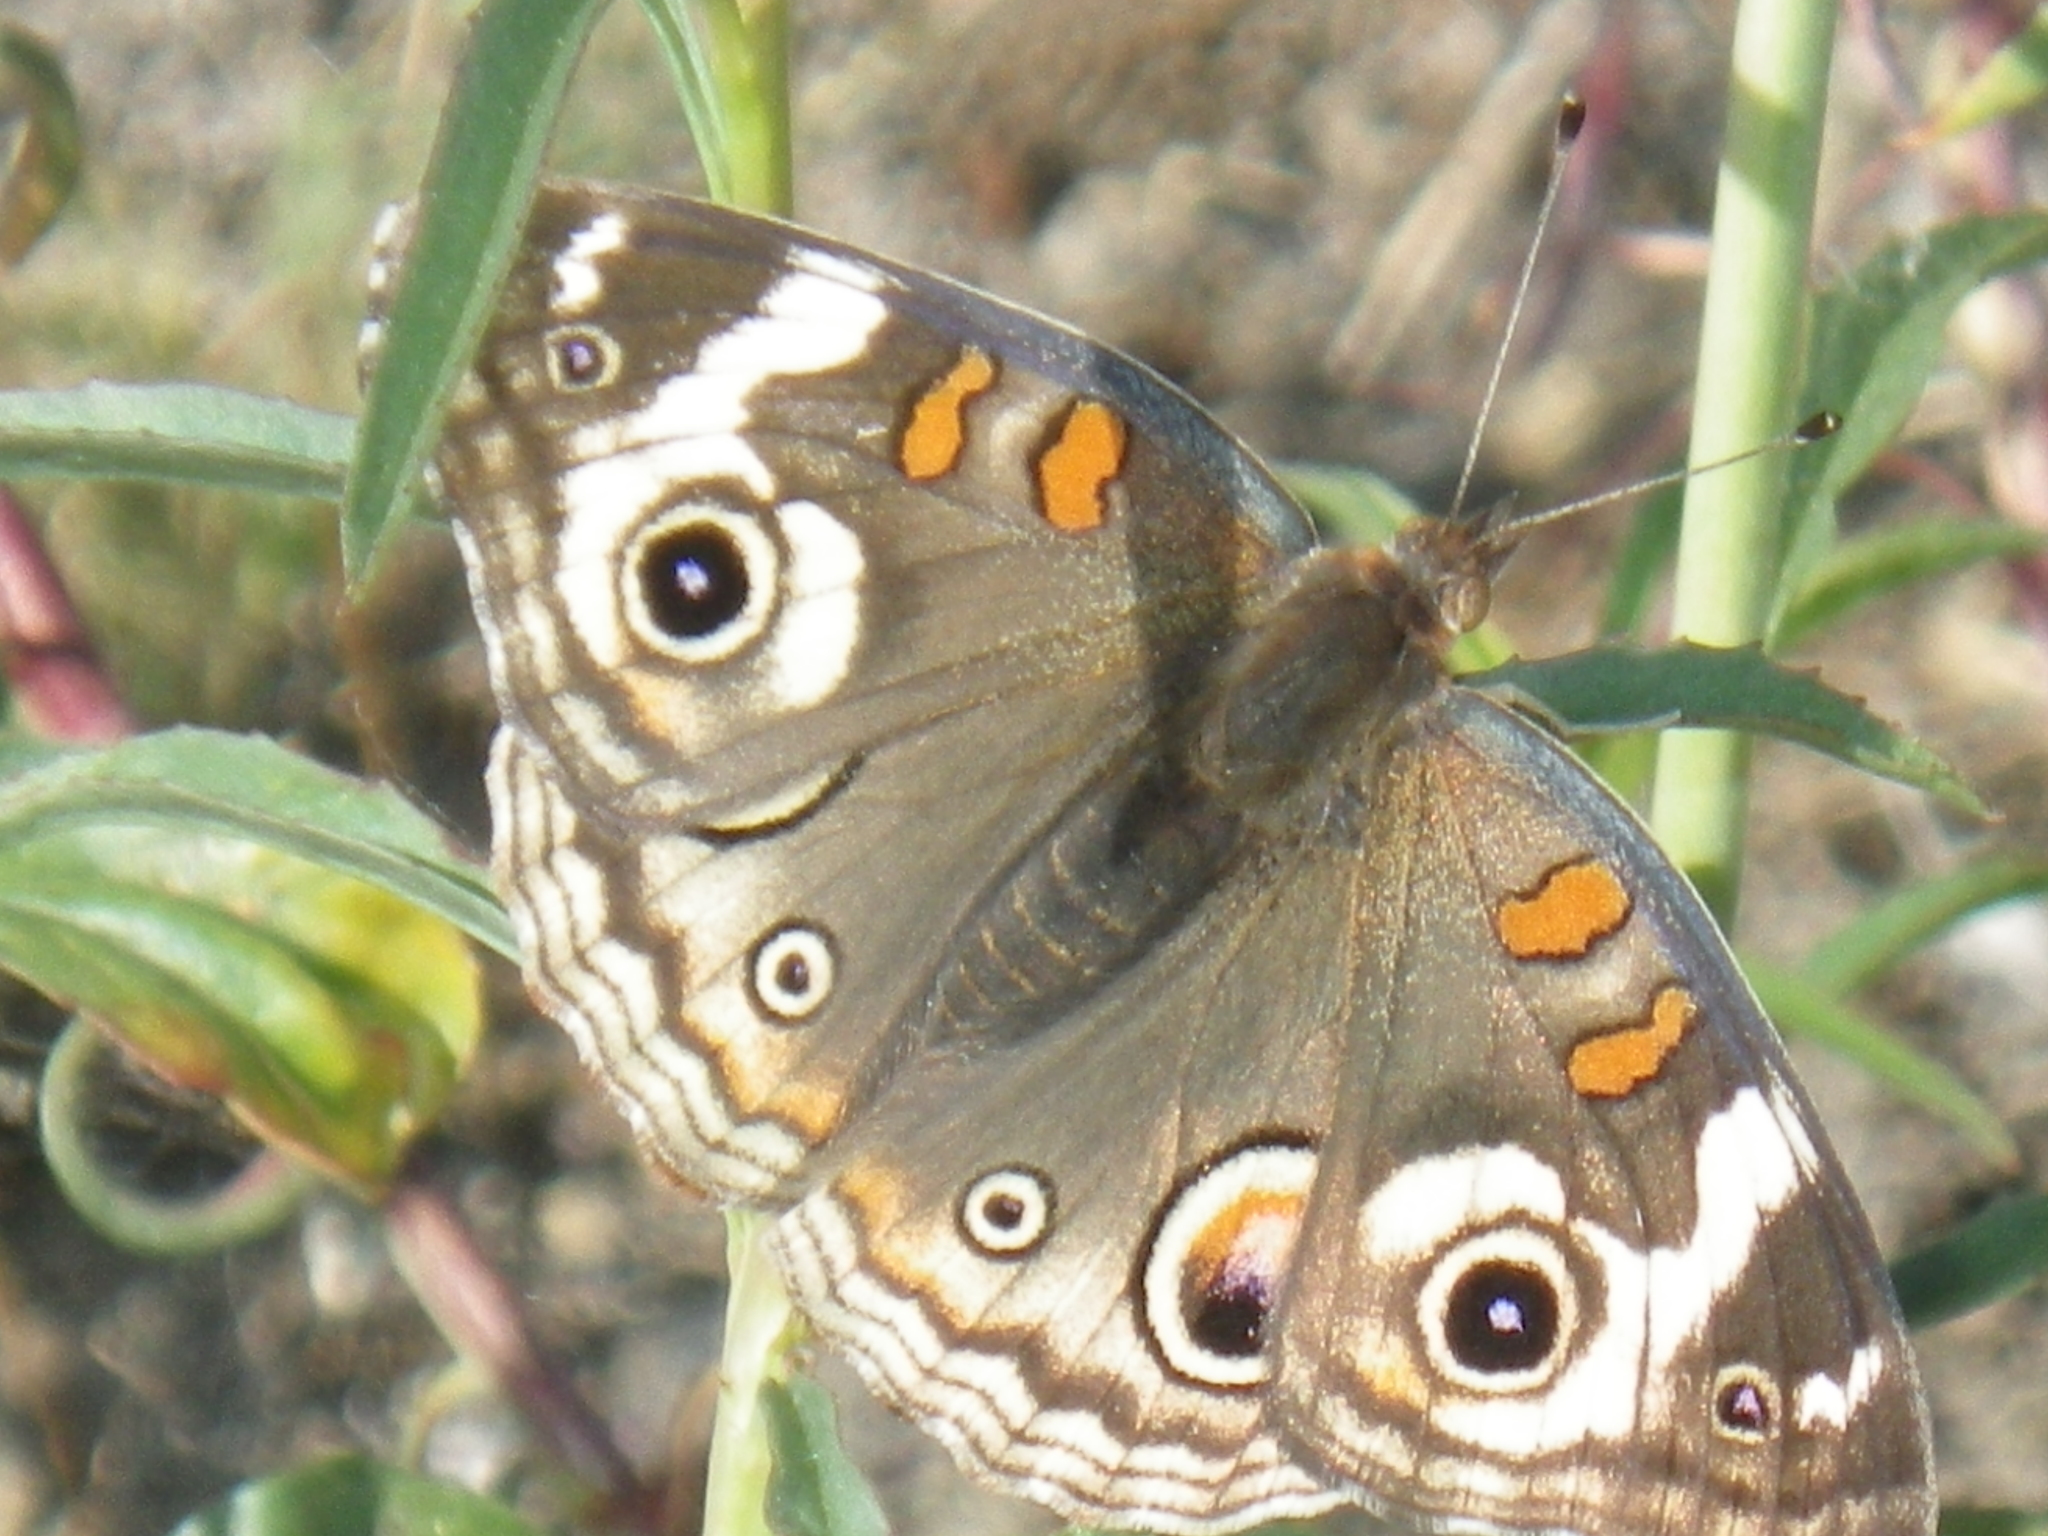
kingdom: Animalia
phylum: Arthropoda
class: Insecta
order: Lepidoptera
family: Nymphalidae
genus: Junonia
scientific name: Junonia grisea
